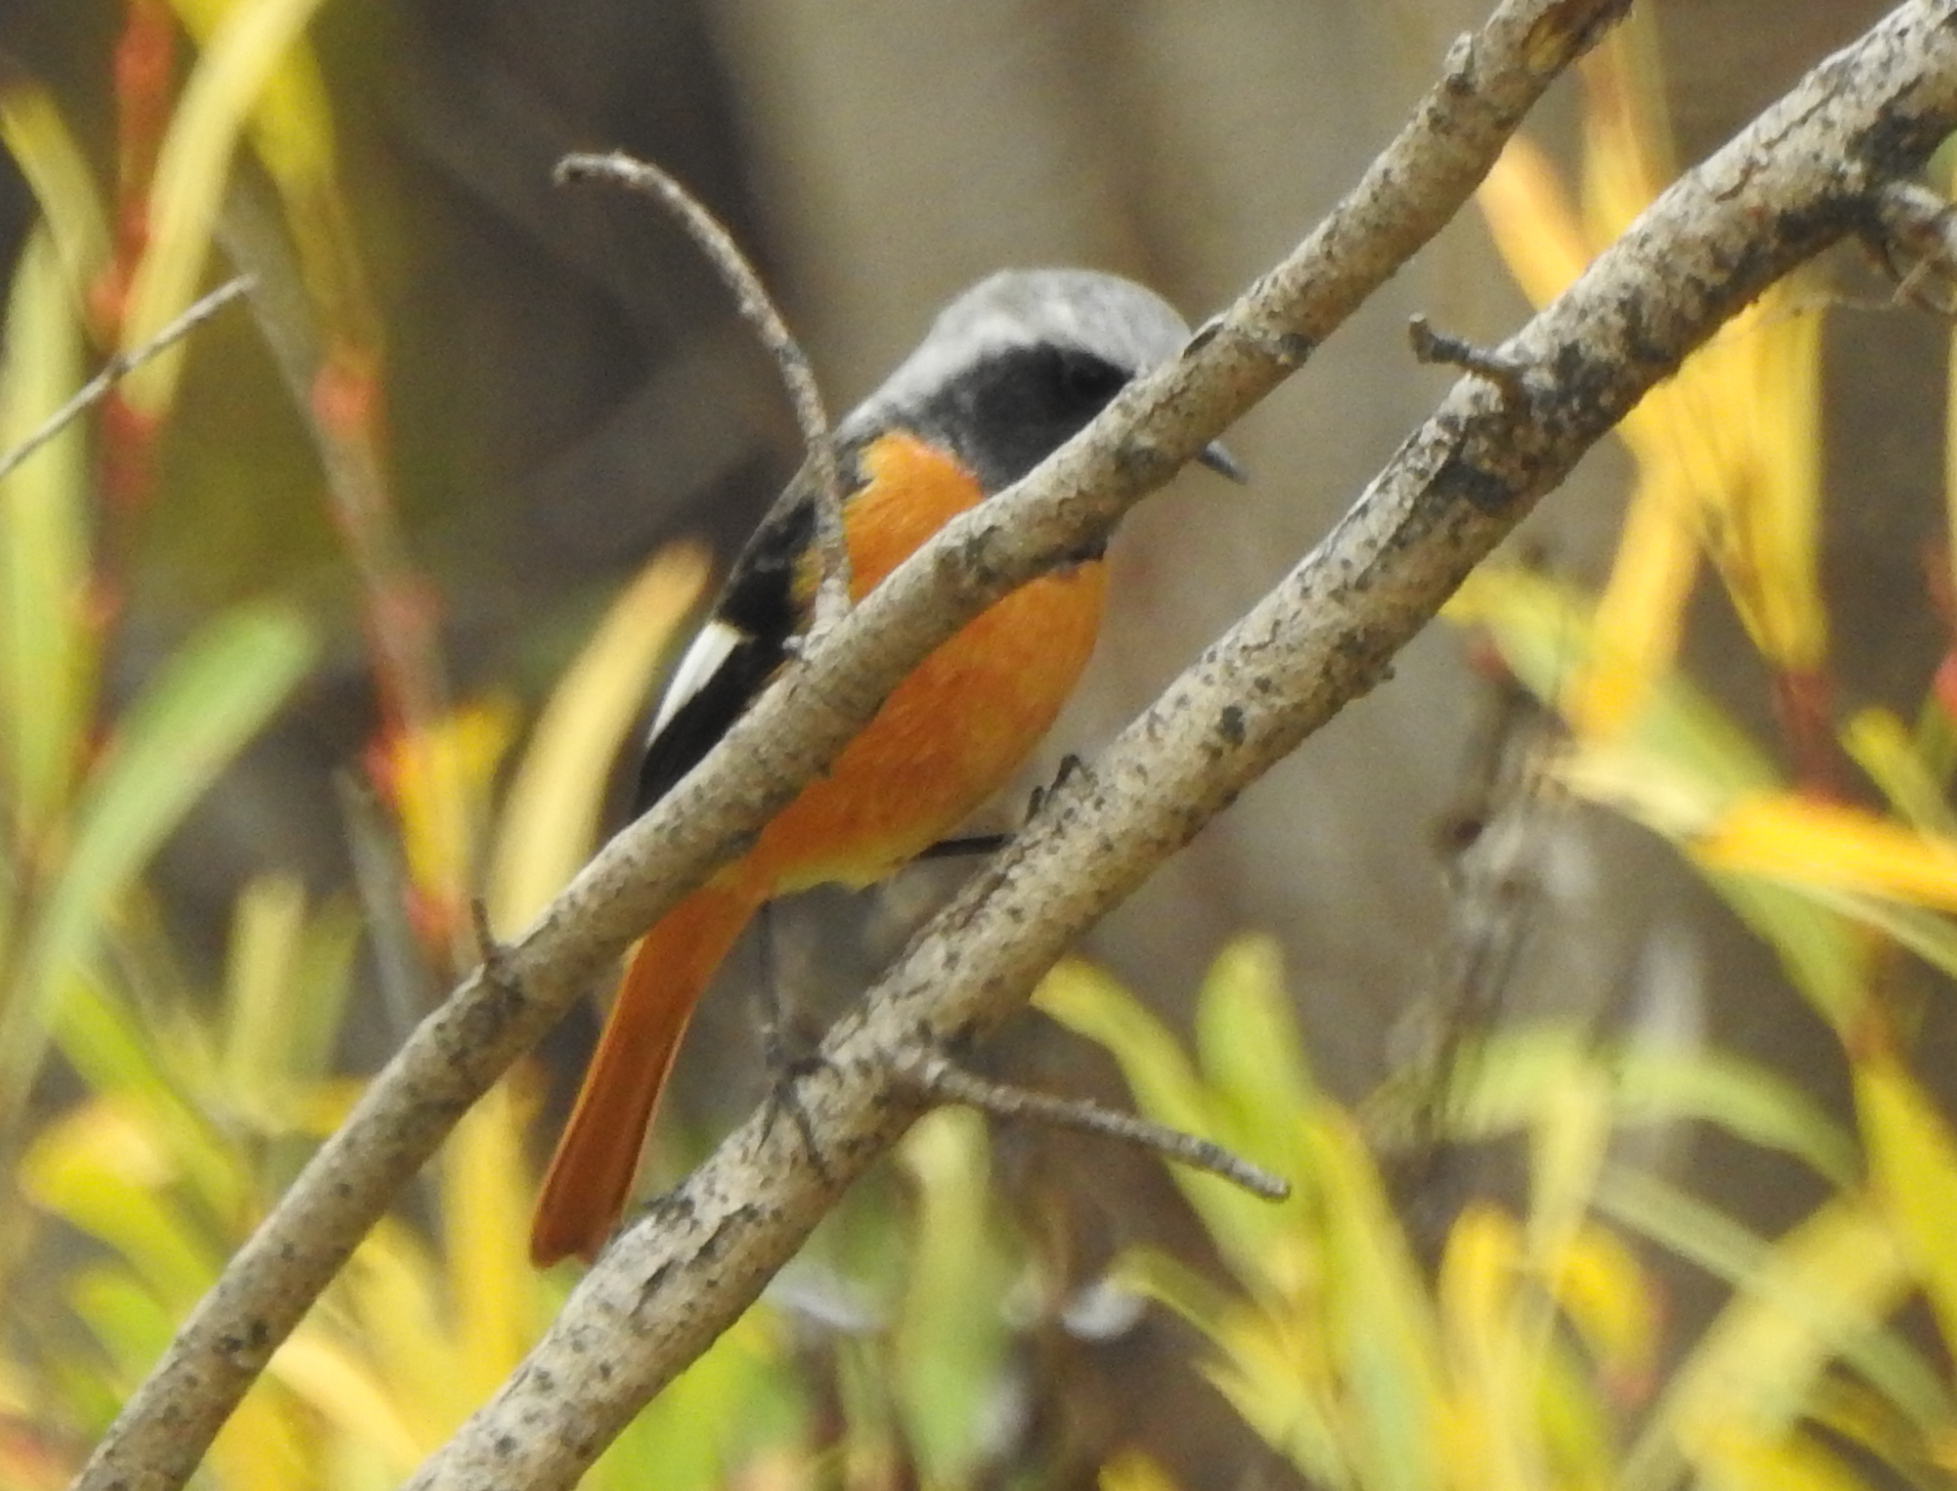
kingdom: Animalia
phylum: Chordata
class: Aves
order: Passeriformes
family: Muscicapidae
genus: Phoenicurus
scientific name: Phoenicurus auroreus
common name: Daurian redstart
